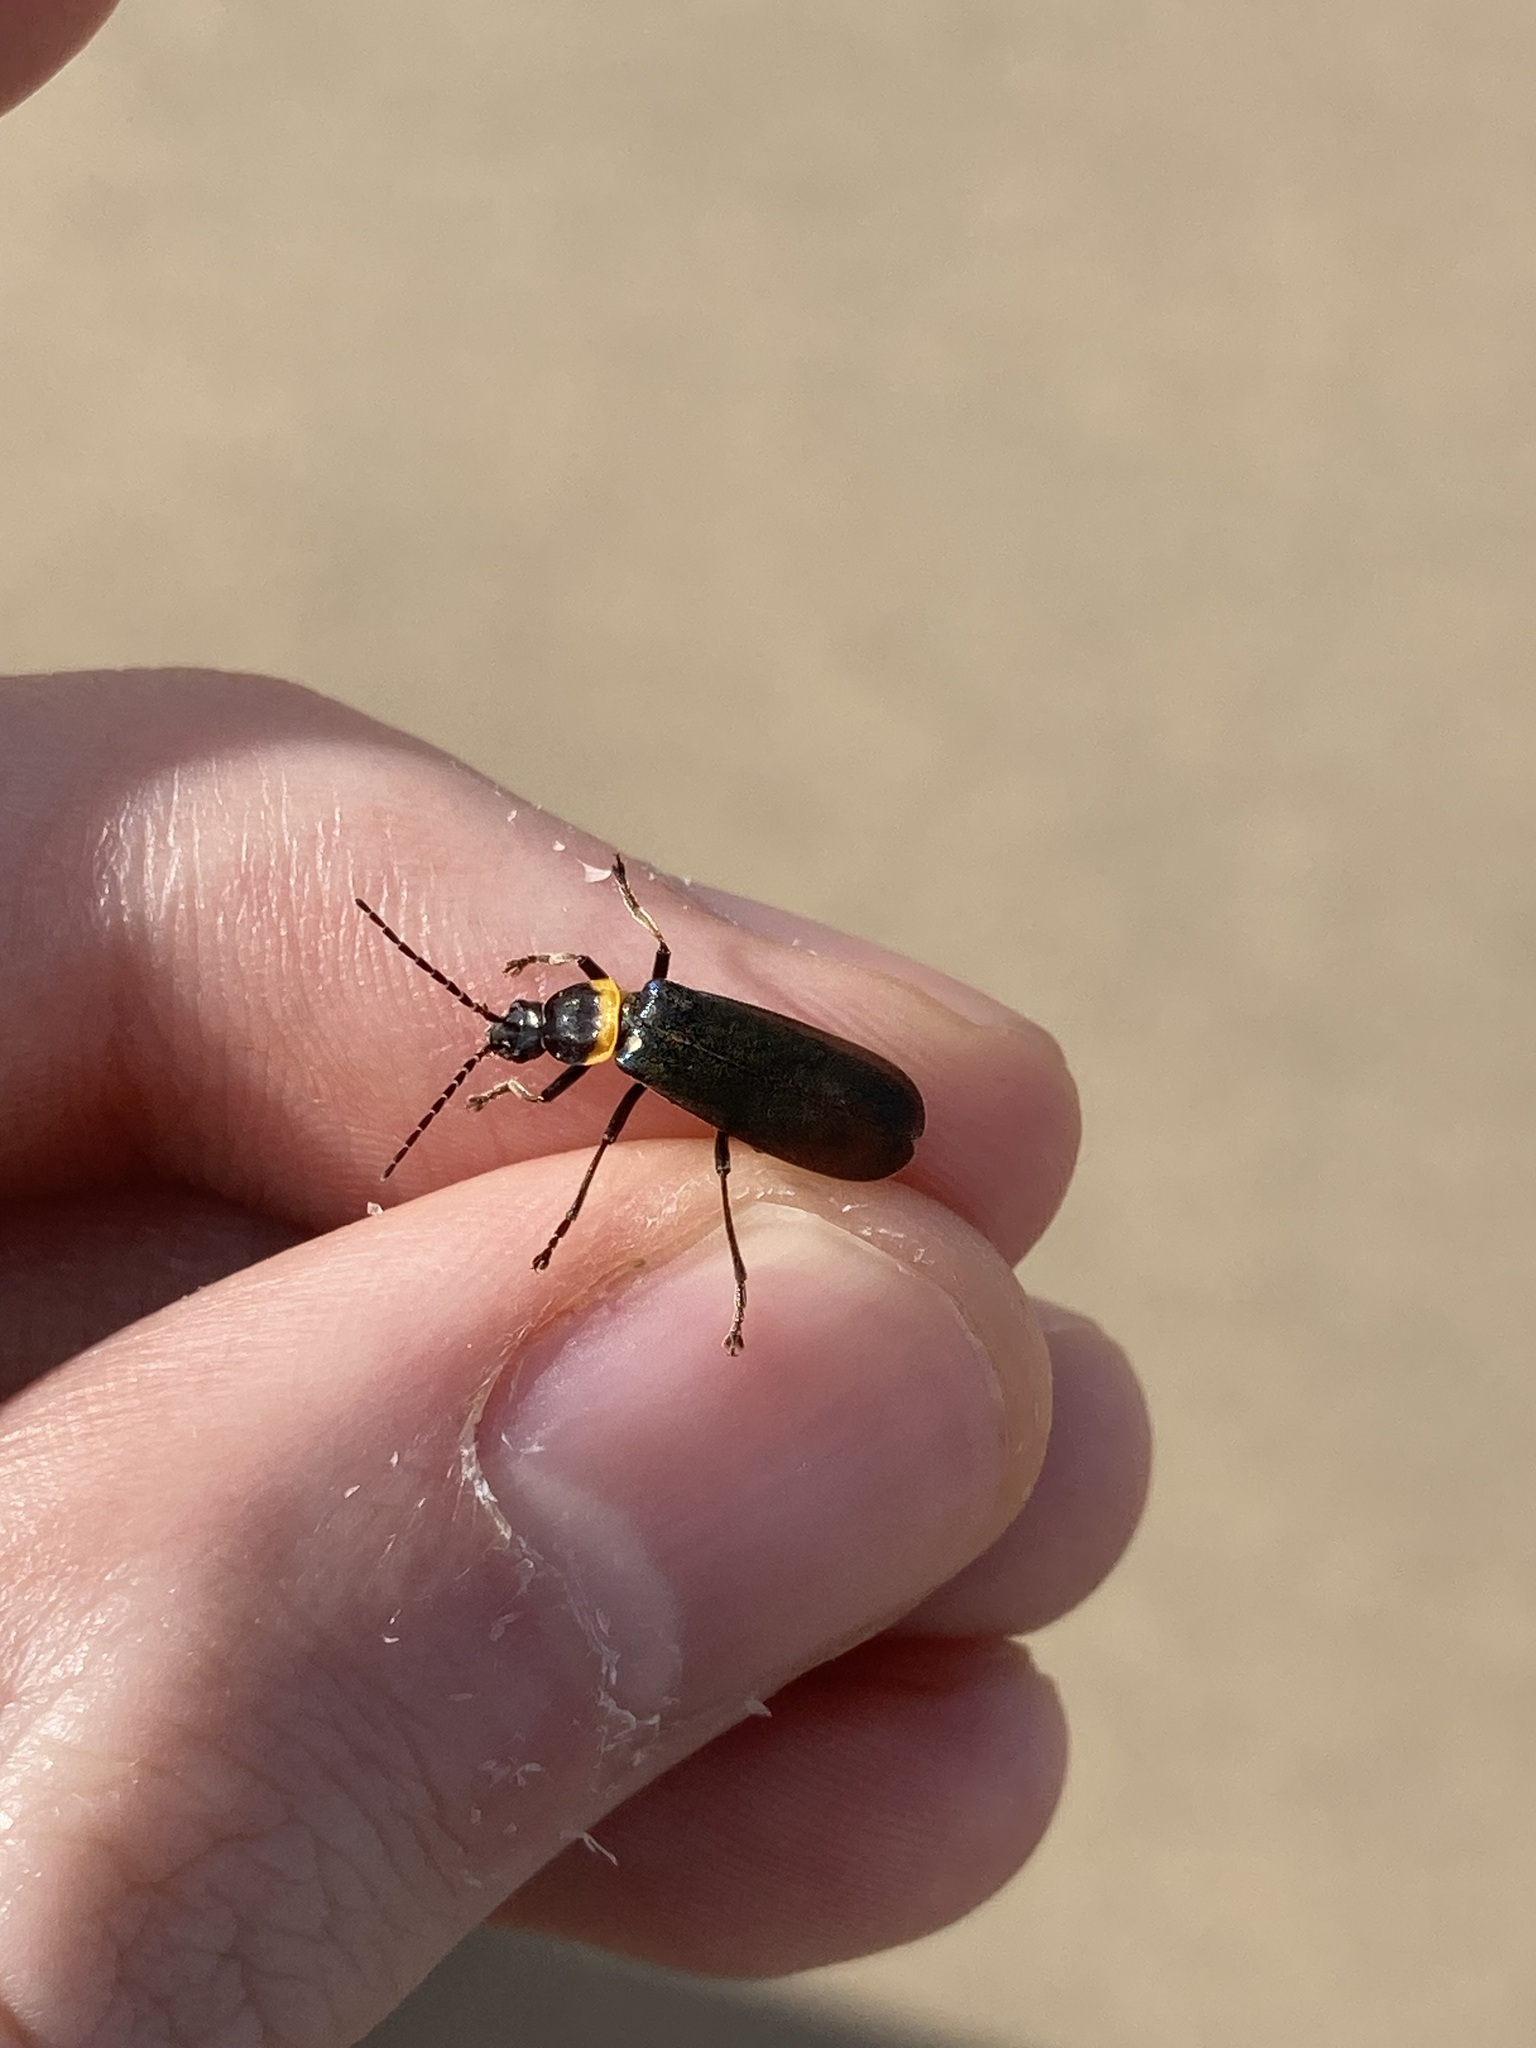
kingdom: Animalia
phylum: Arthropoda
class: Insecta
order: Coleoptera
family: Cantharidae
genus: Chauliognathus
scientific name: Chauliognathus
